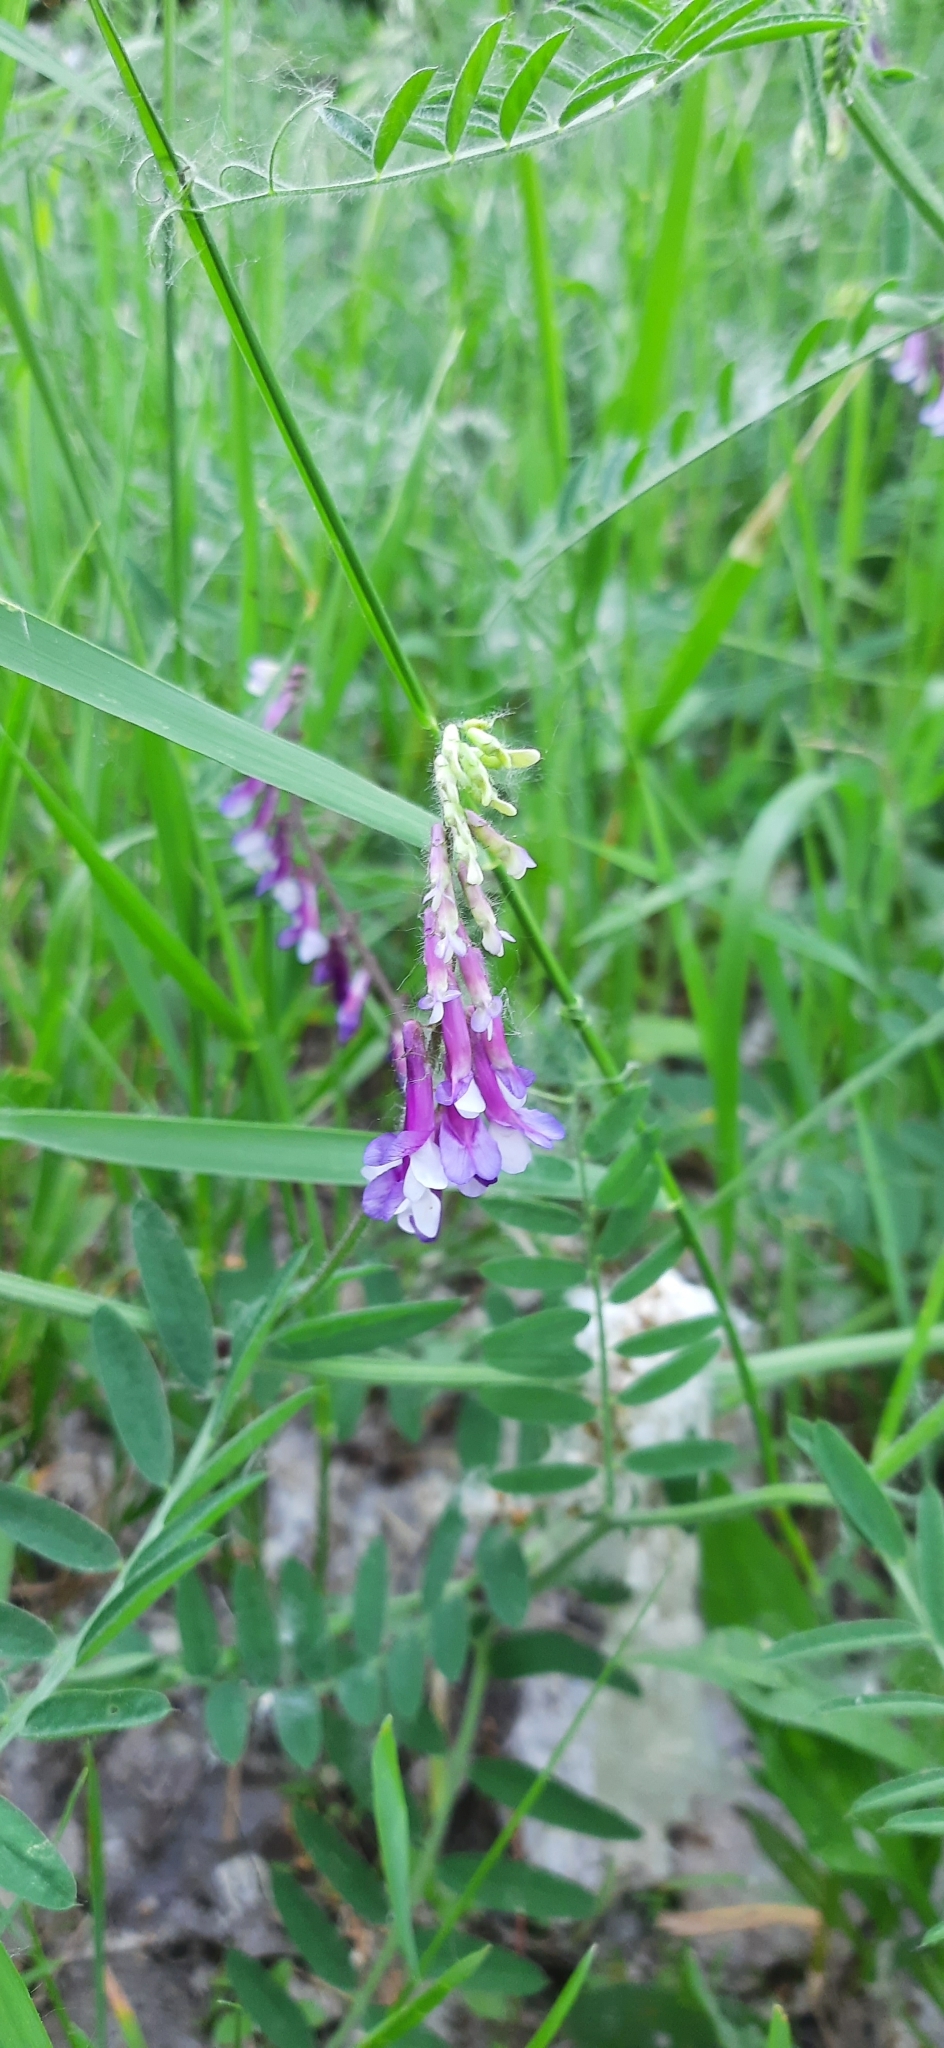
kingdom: Plantae
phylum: Tracheophyta
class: Magnoliopsida
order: Fabales
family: Fabaceae
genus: Vicia
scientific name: Vicia villosa
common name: Fodder vetch
